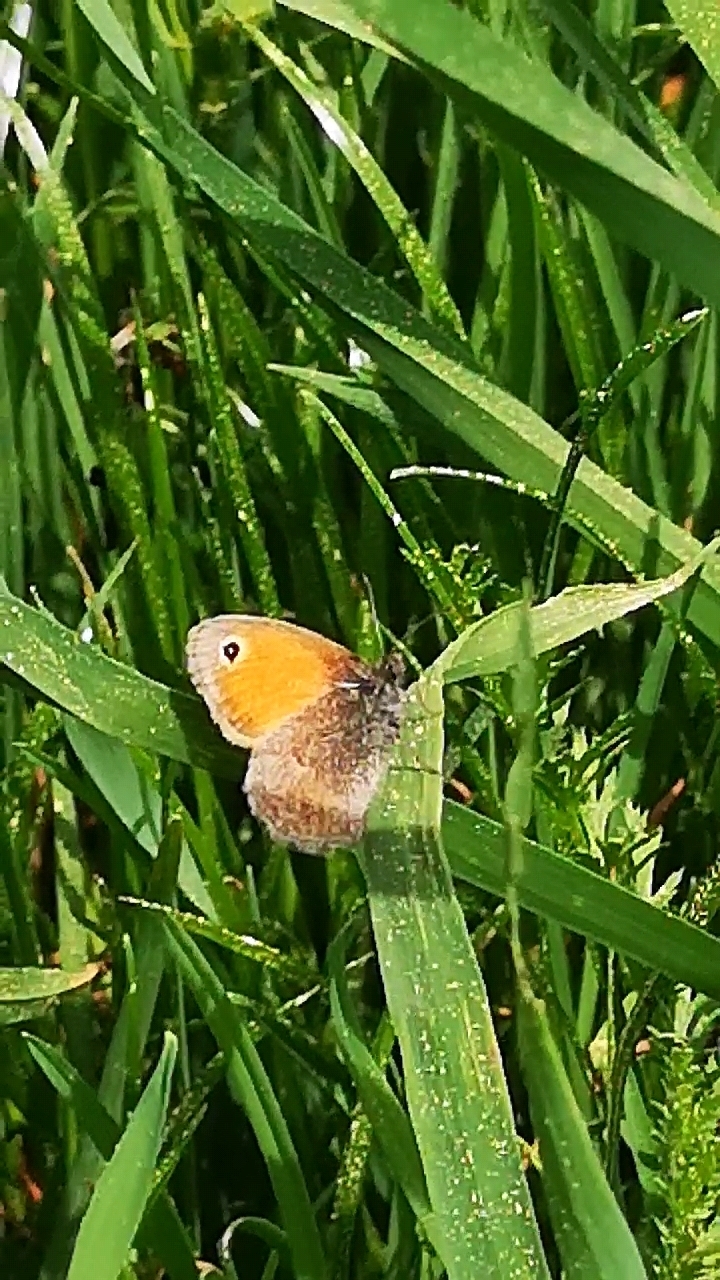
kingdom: Animalia
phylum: Arthropoda
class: Insecta
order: Lepidoptera
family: Nymphalidae
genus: Coenonympha
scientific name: Coenonympha pamphilus
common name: Small heath
